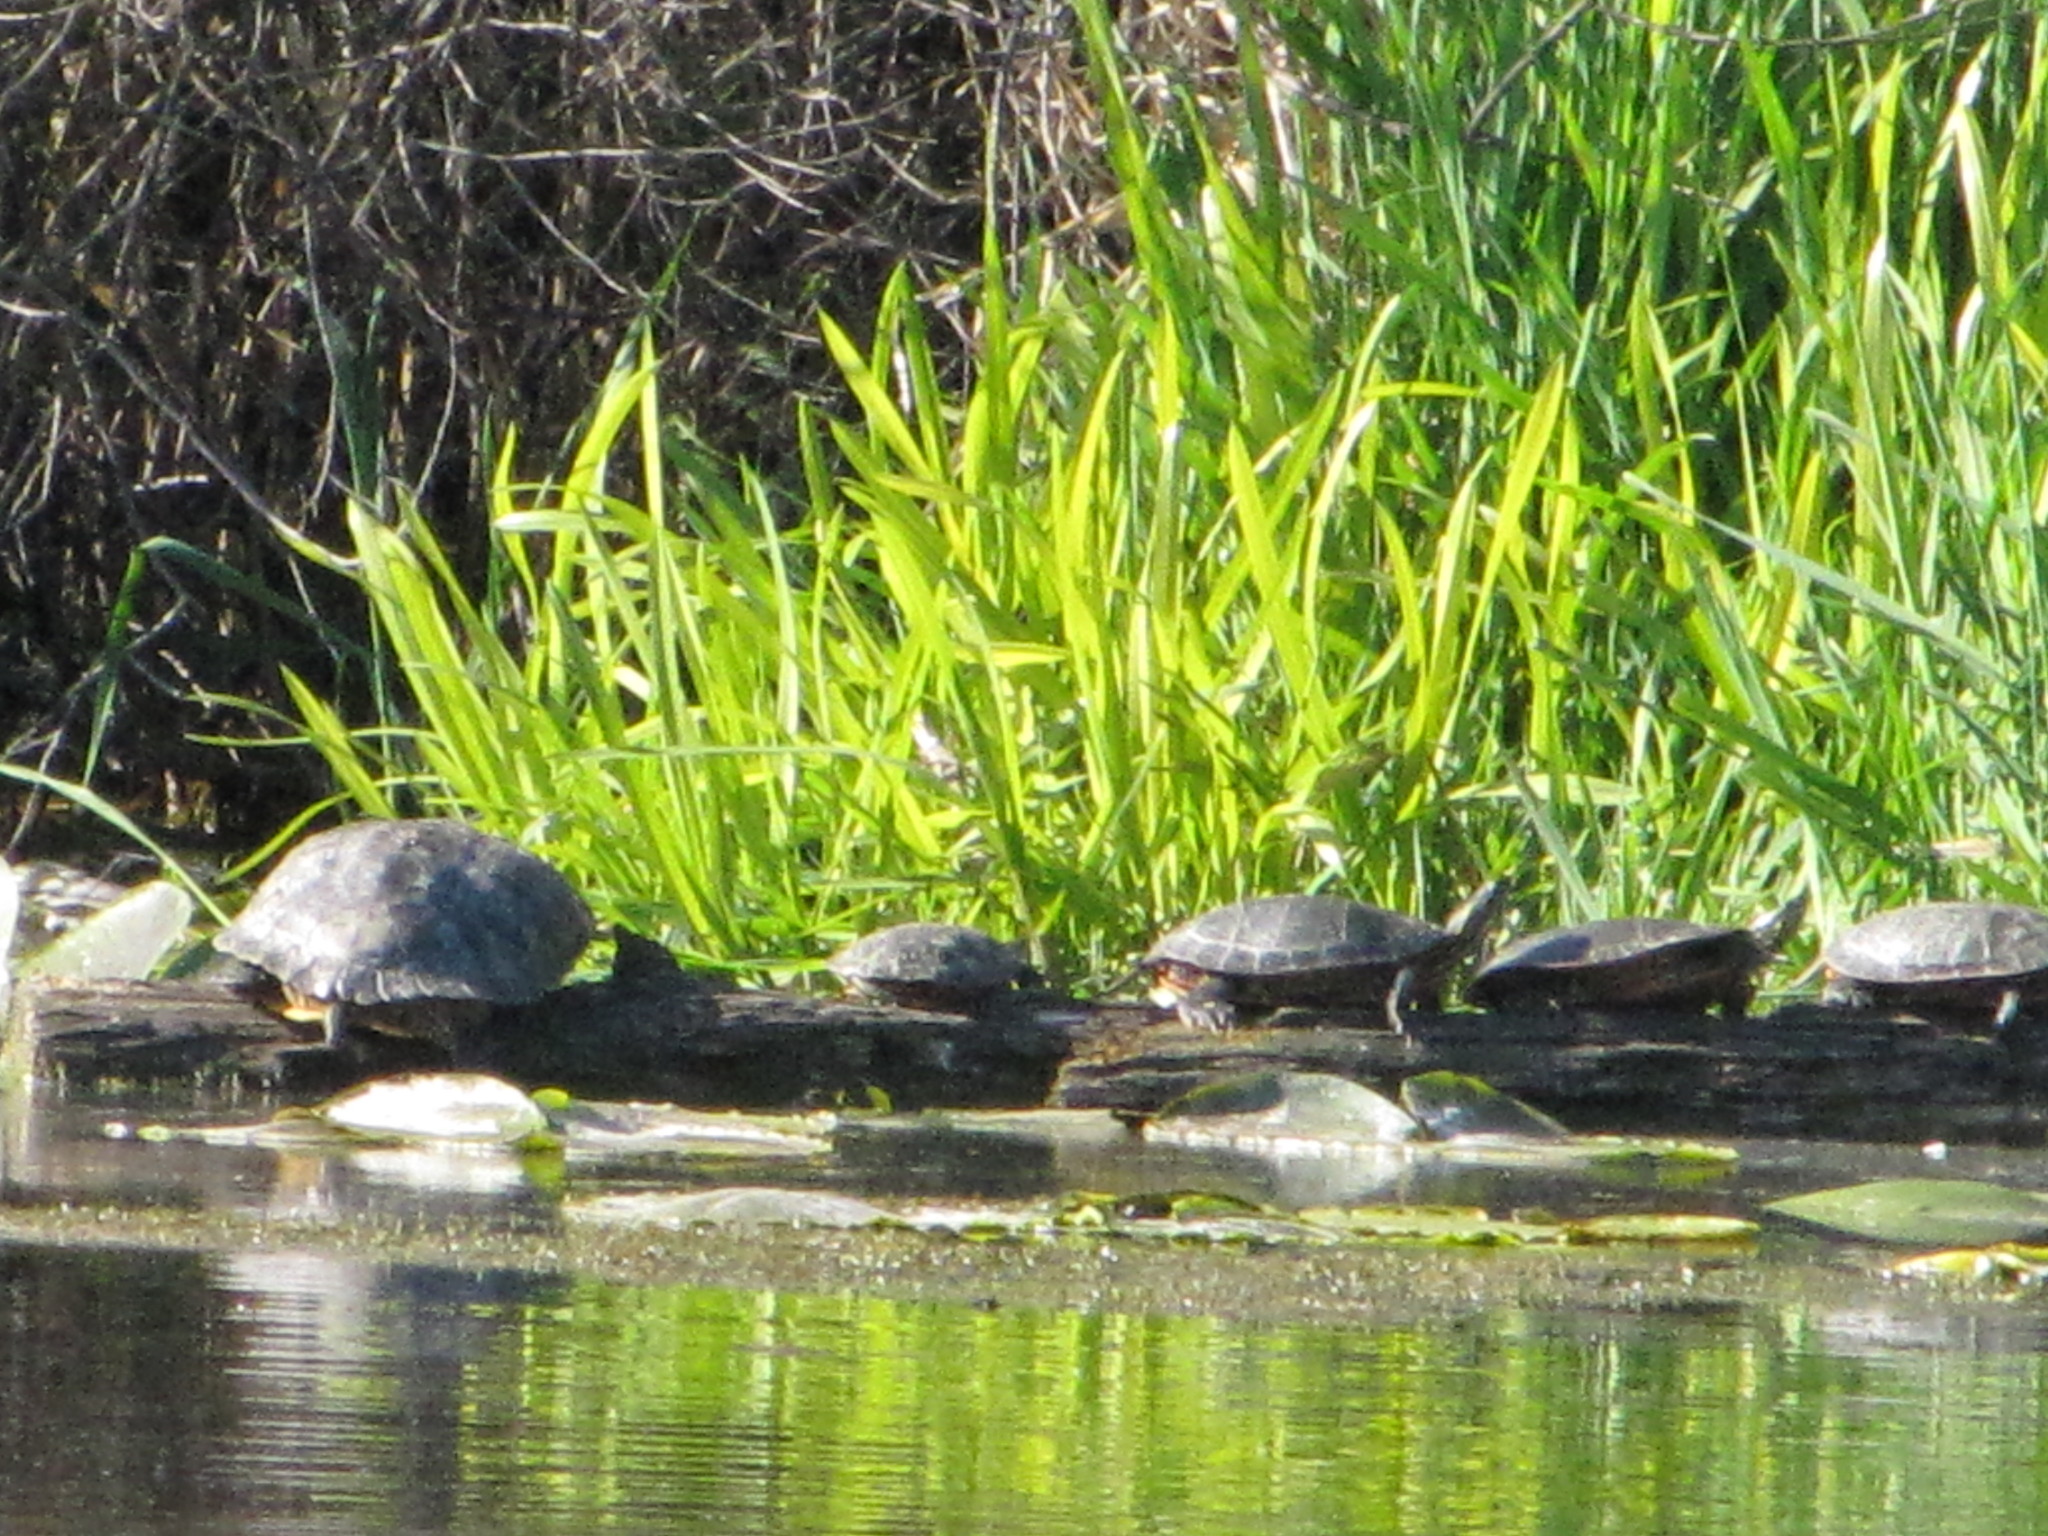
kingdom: Animalia
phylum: Chordata
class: Testudines
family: Emydidae
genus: Trachemys
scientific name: Trachemys scripta
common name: Slider
